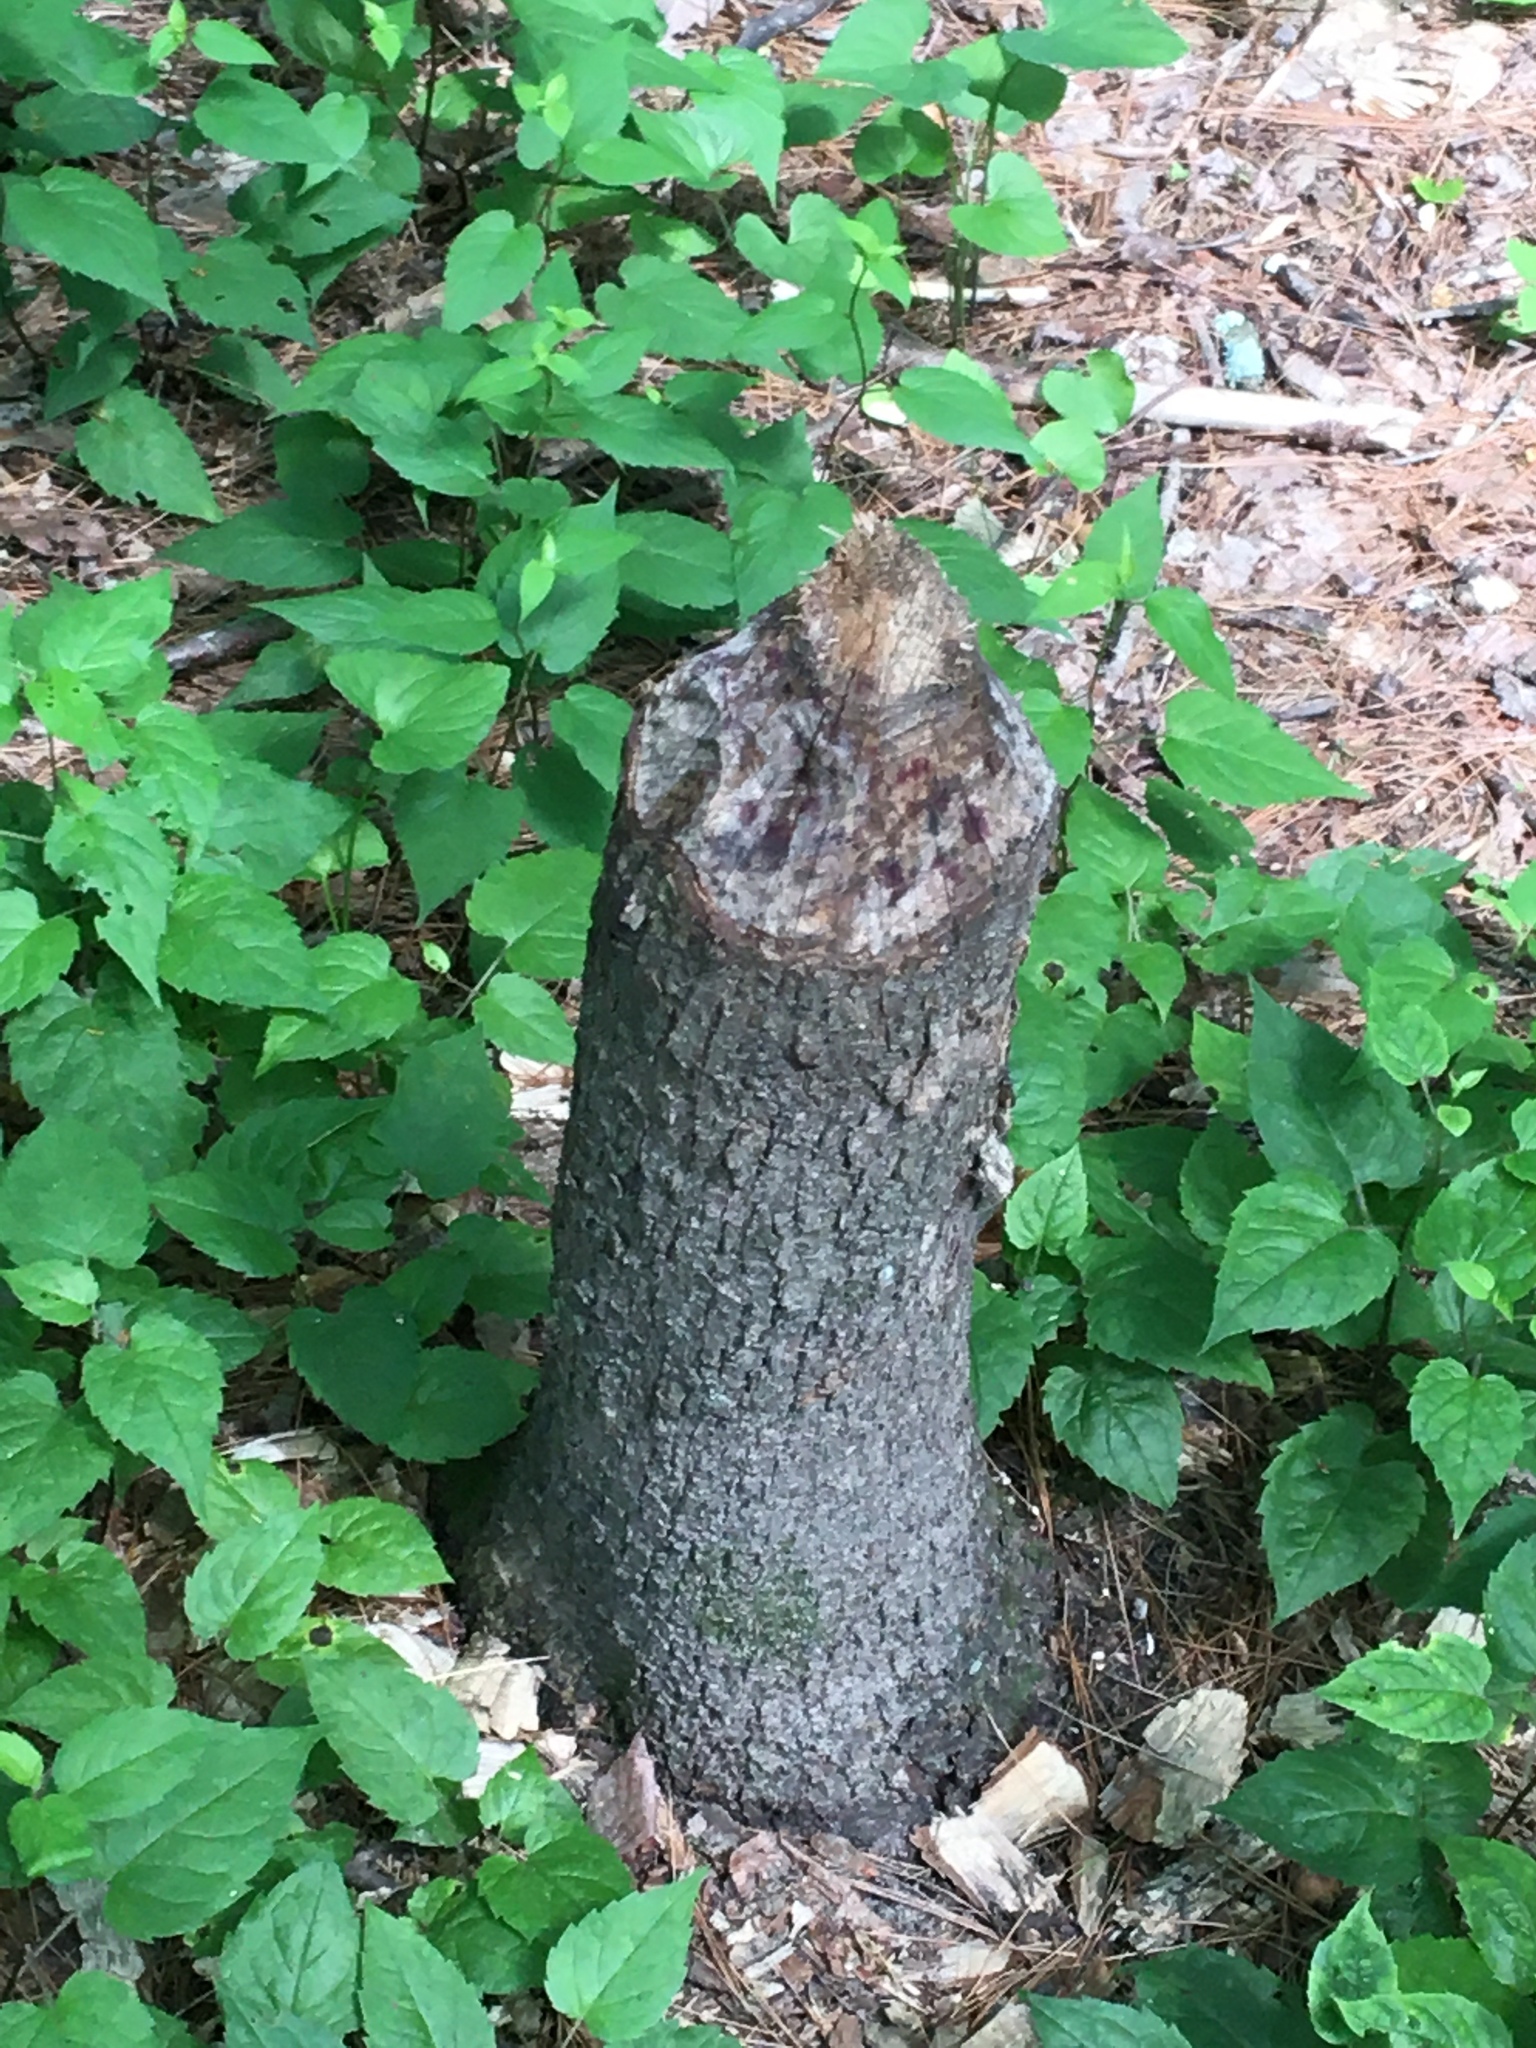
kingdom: Animalia
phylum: Chordata
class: Mammalia
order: Rodentia
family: Castoridae
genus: Castor
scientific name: Castor canadensis
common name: American beaver
